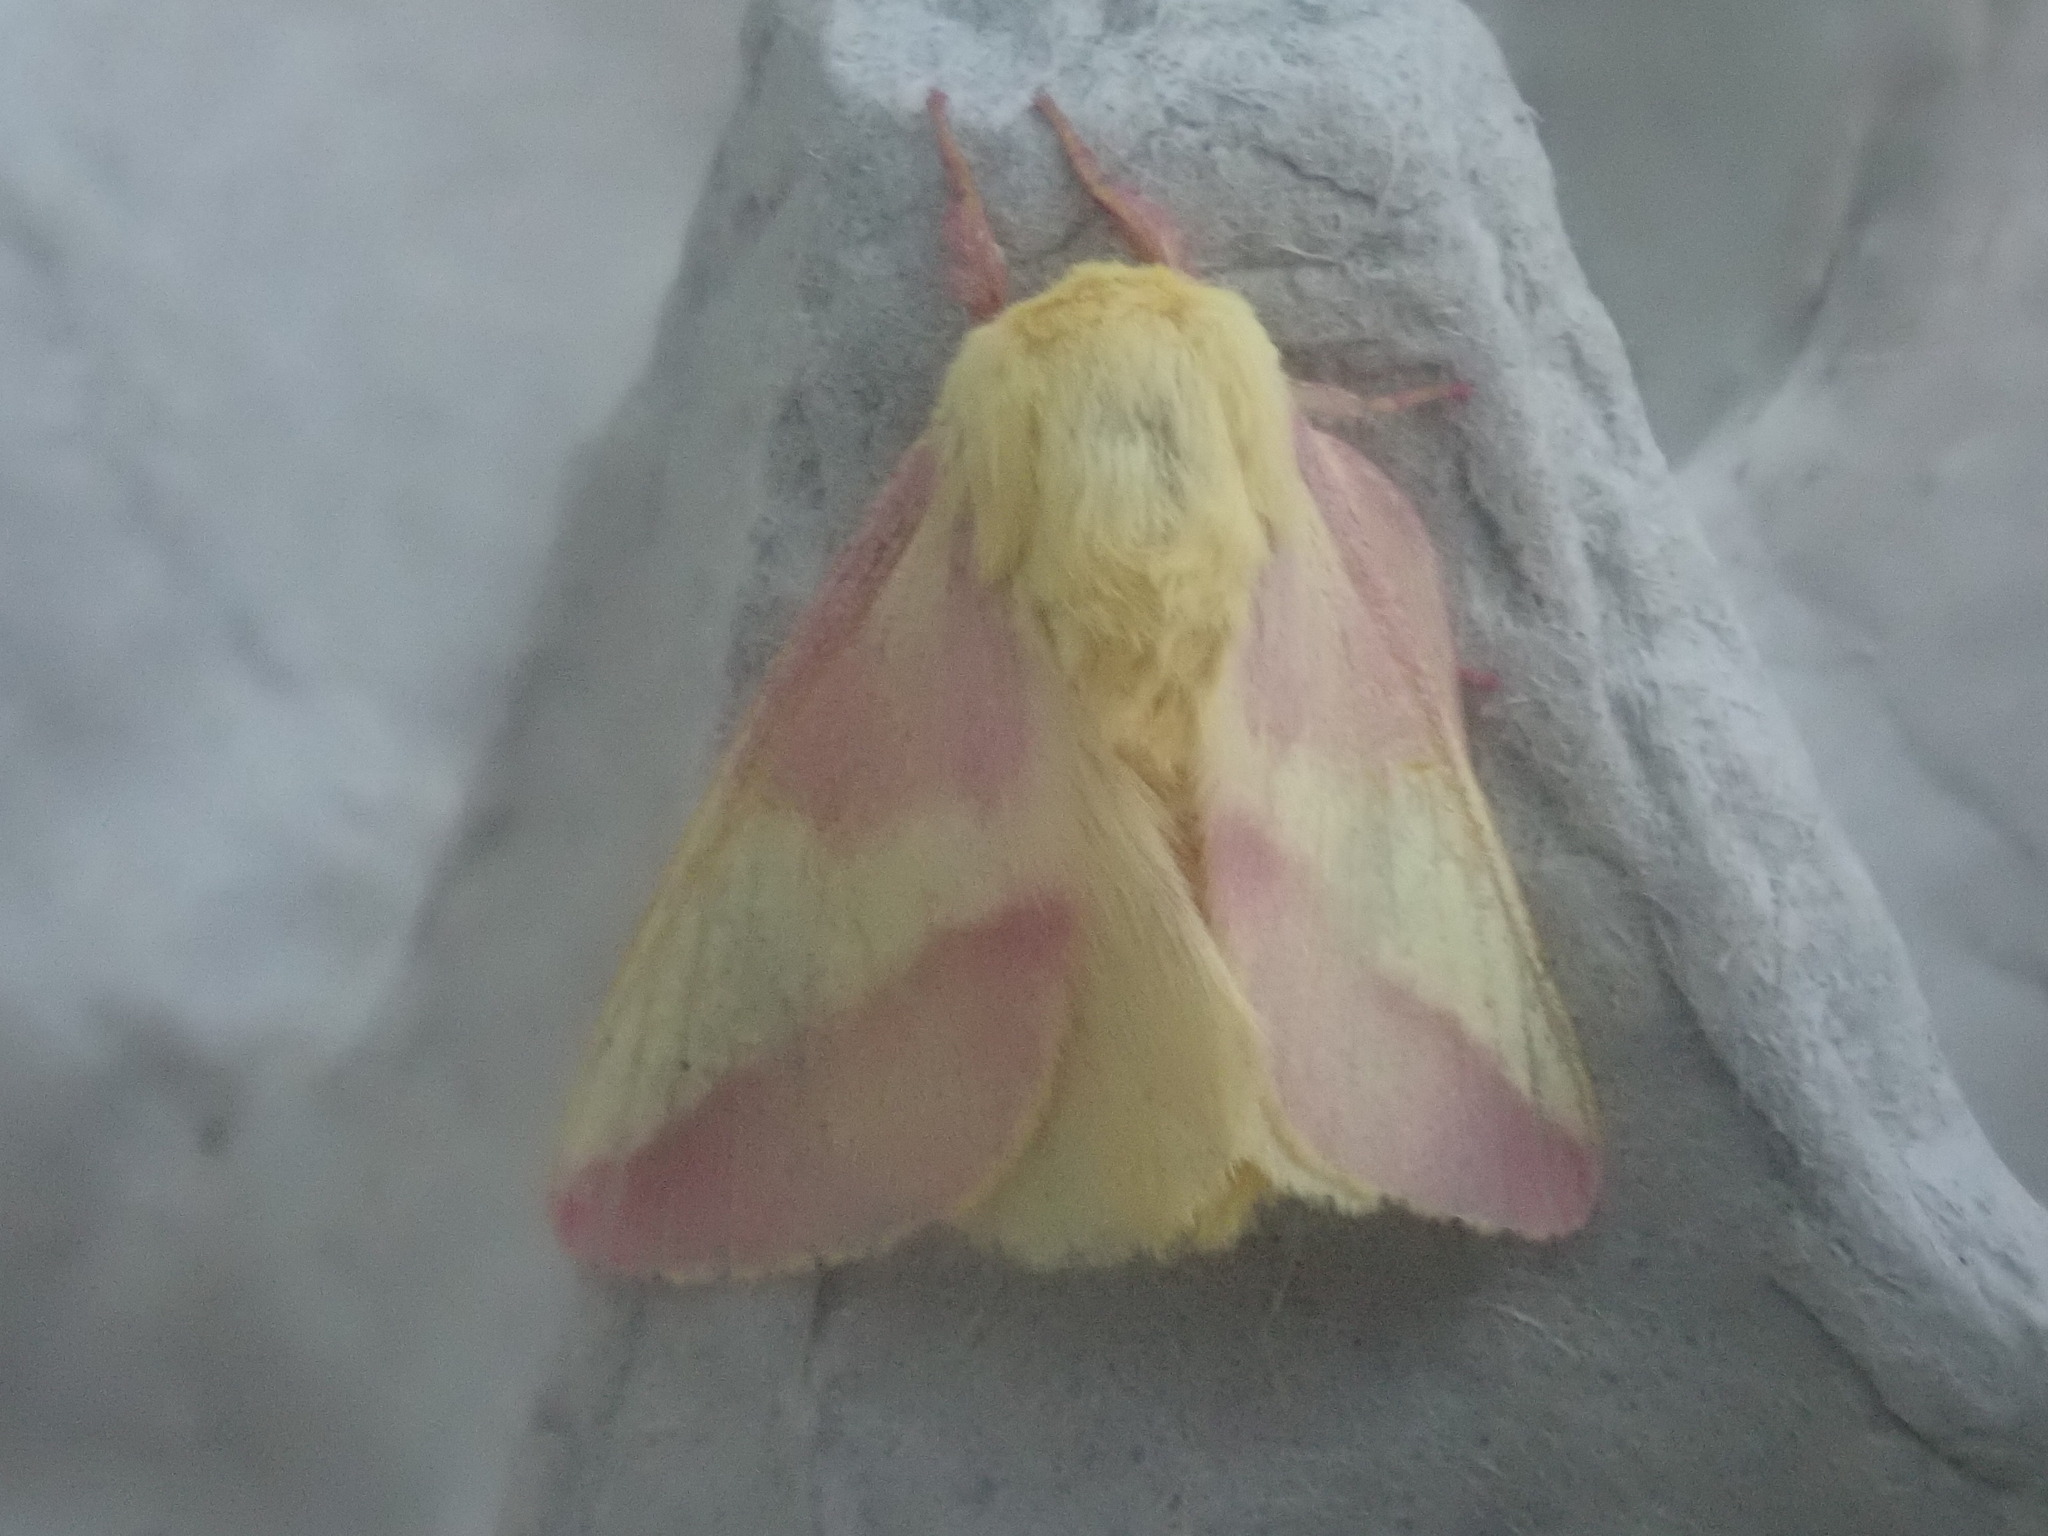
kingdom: Animalia
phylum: Arthropoda
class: Insecta
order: Lepidoptera
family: Saturniidae
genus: Dryocampa
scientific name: Dryocampa rubicunda
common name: Rosy maple moth
